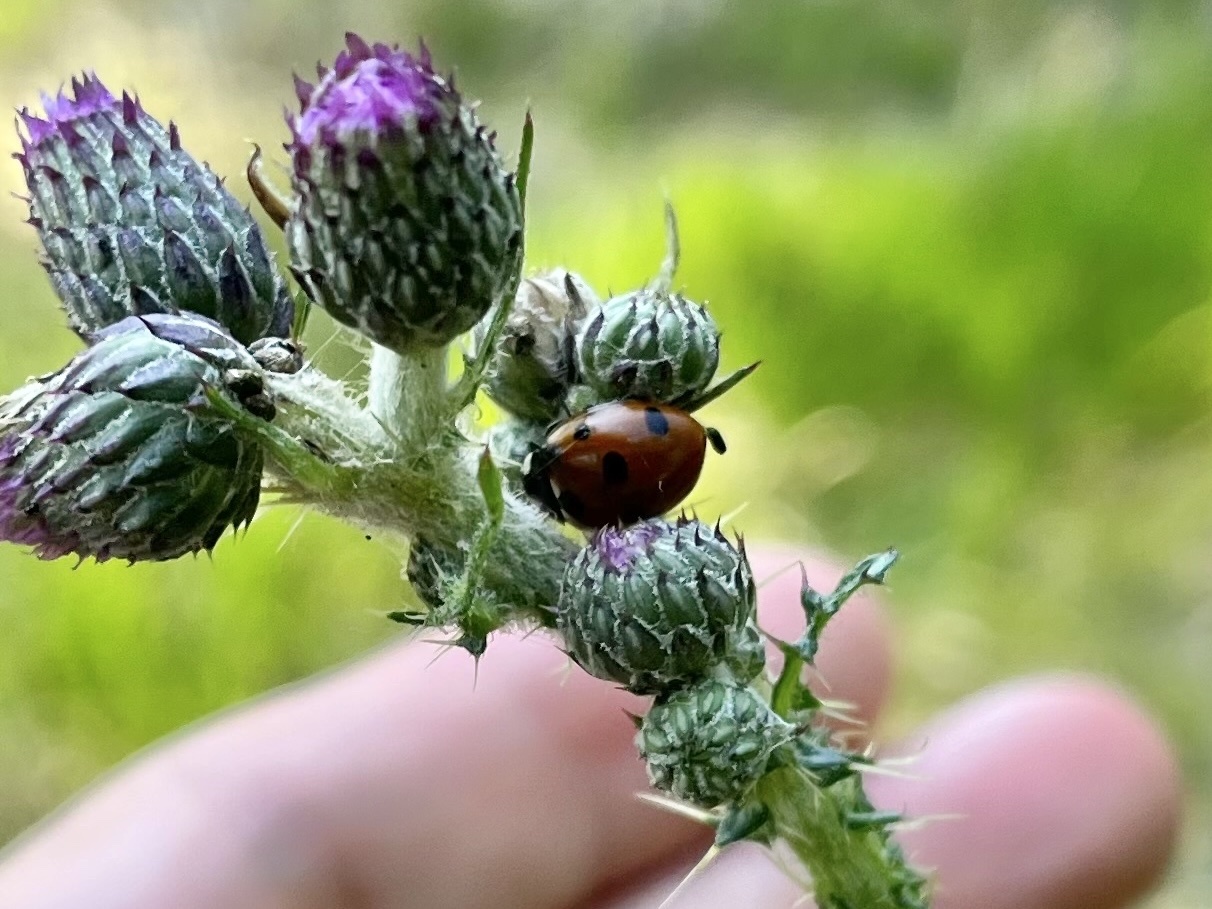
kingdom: Animalia
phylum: Arthropoda
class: Insecta
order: Coleoptera
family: Coccinellidae
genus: Coccinella
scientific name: Coccinella septempunctata
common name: Sevenspotted lady beetle
